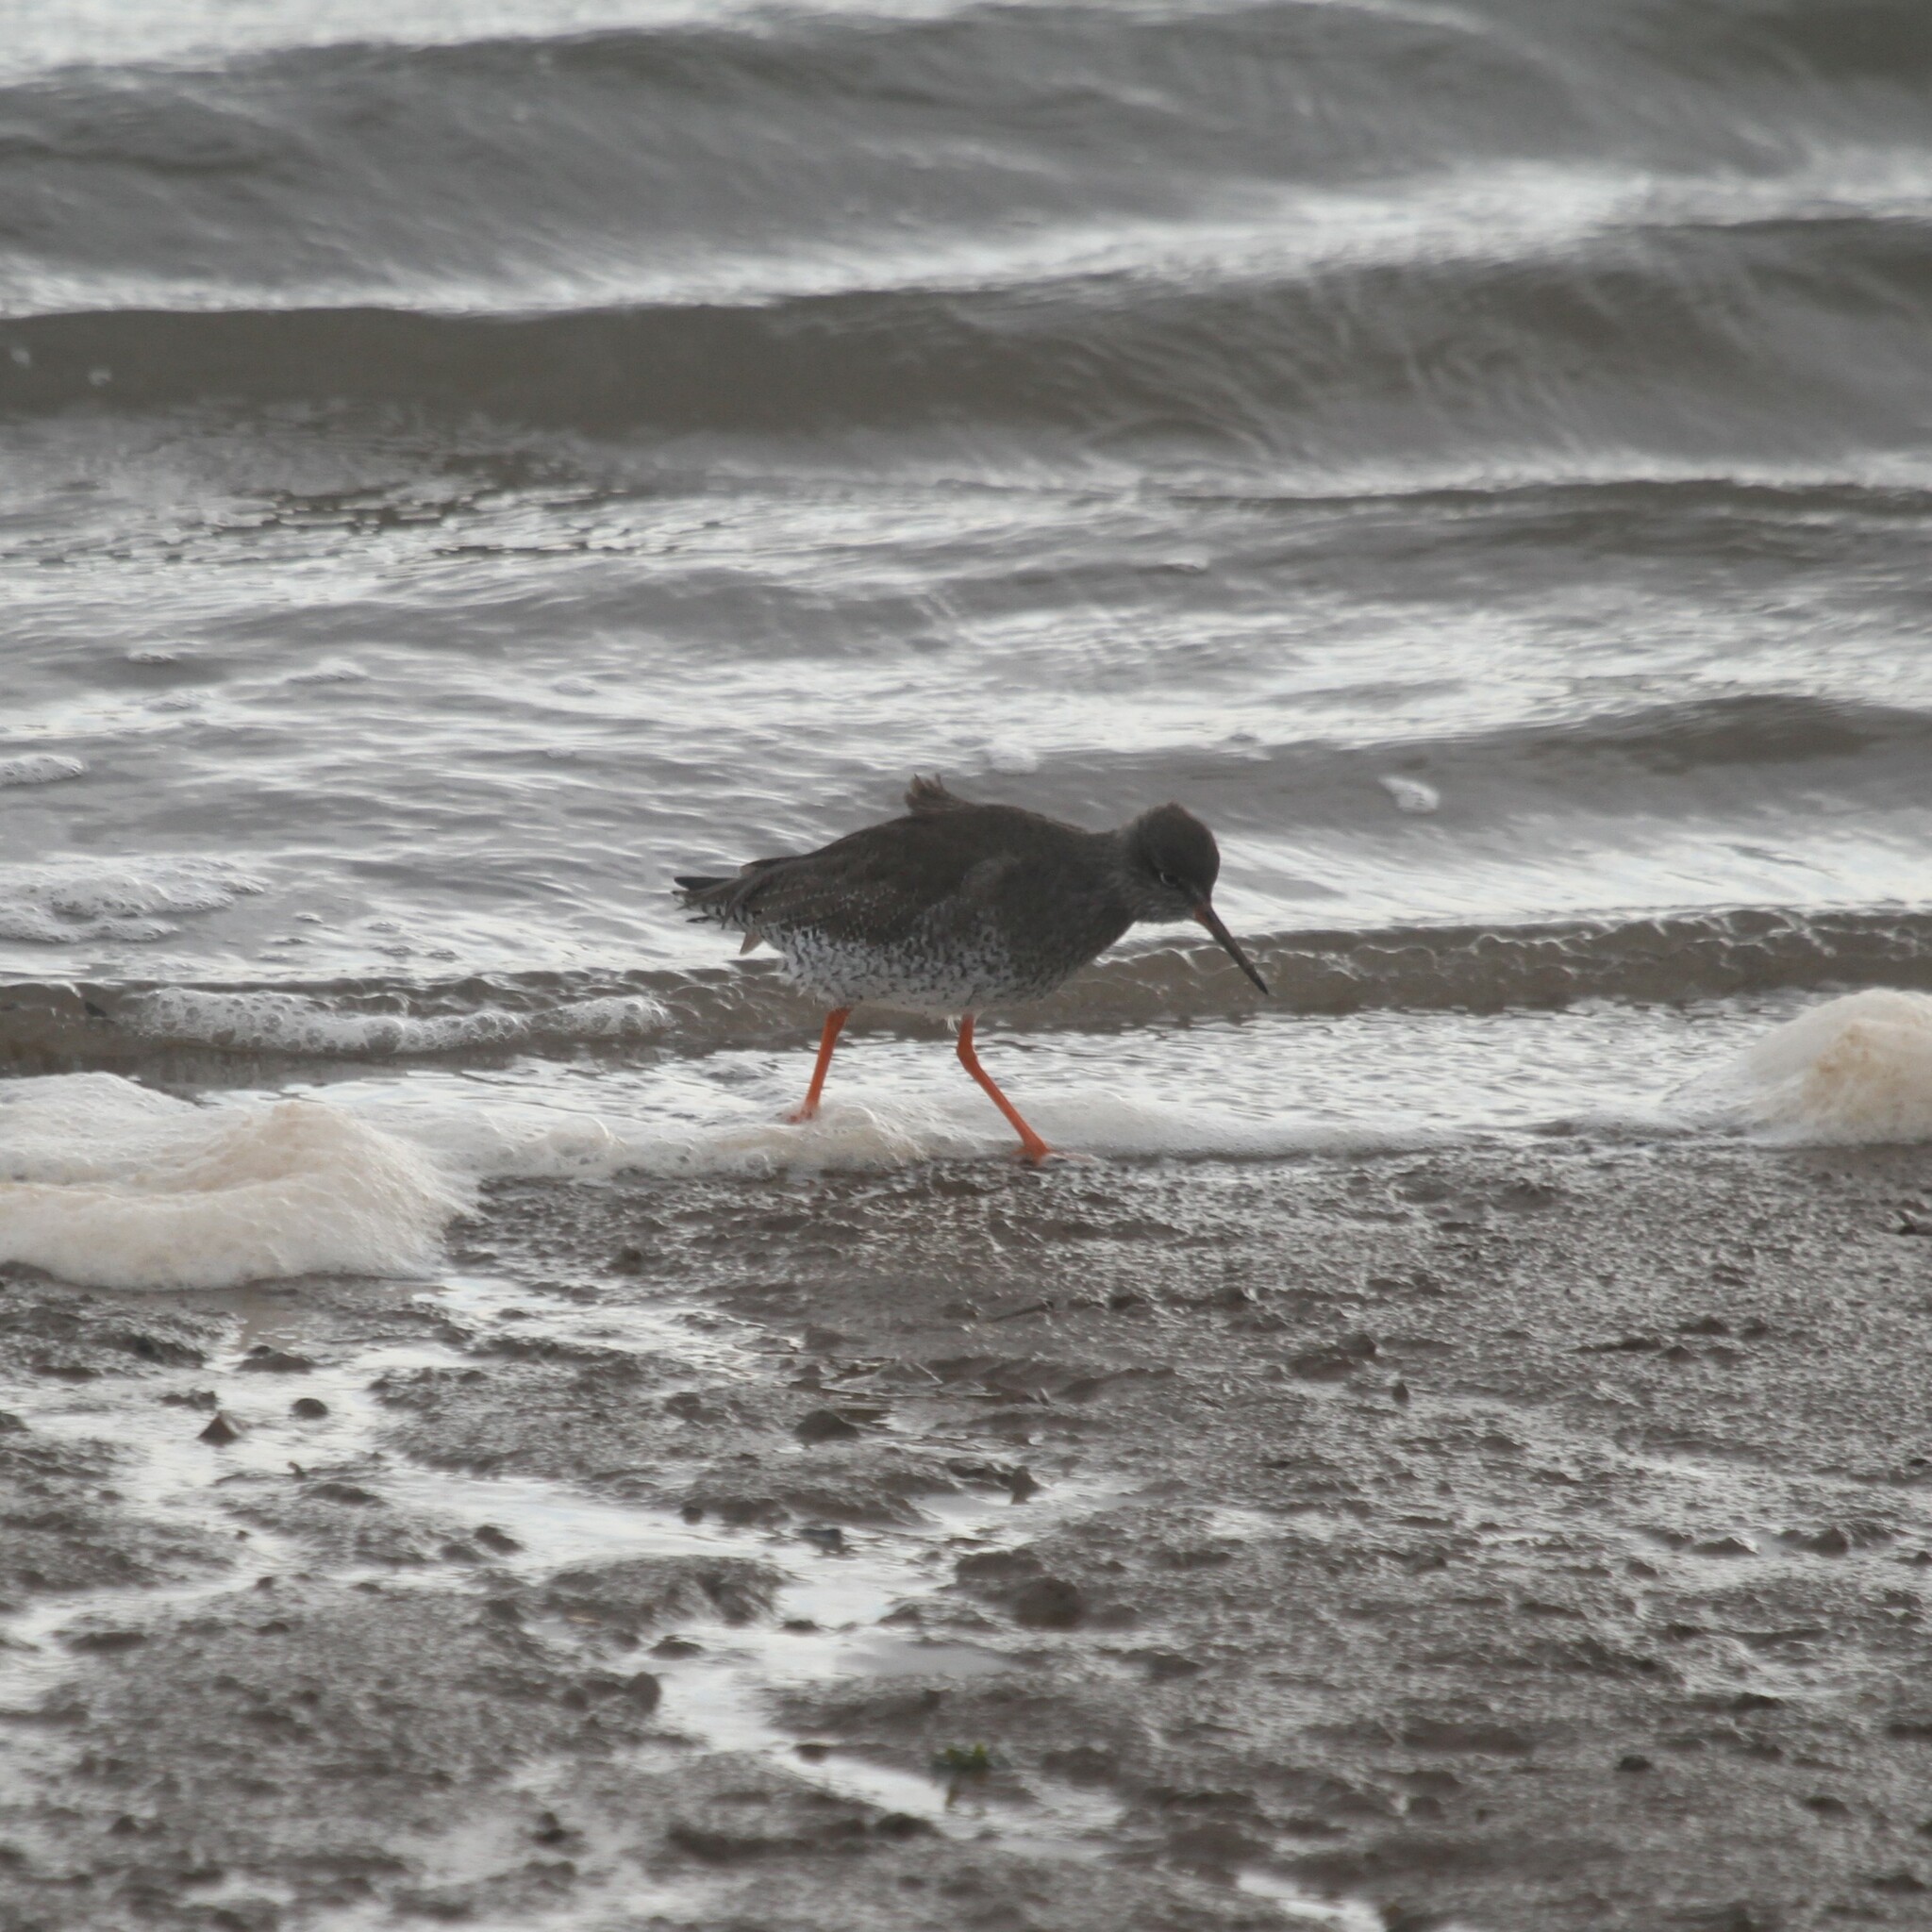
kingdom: Animalia
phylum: Chordata
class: Aves
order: Charadriiformes
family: Scolopacidae
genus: Tringa
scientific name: Tringa totanus
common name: Common redshank
